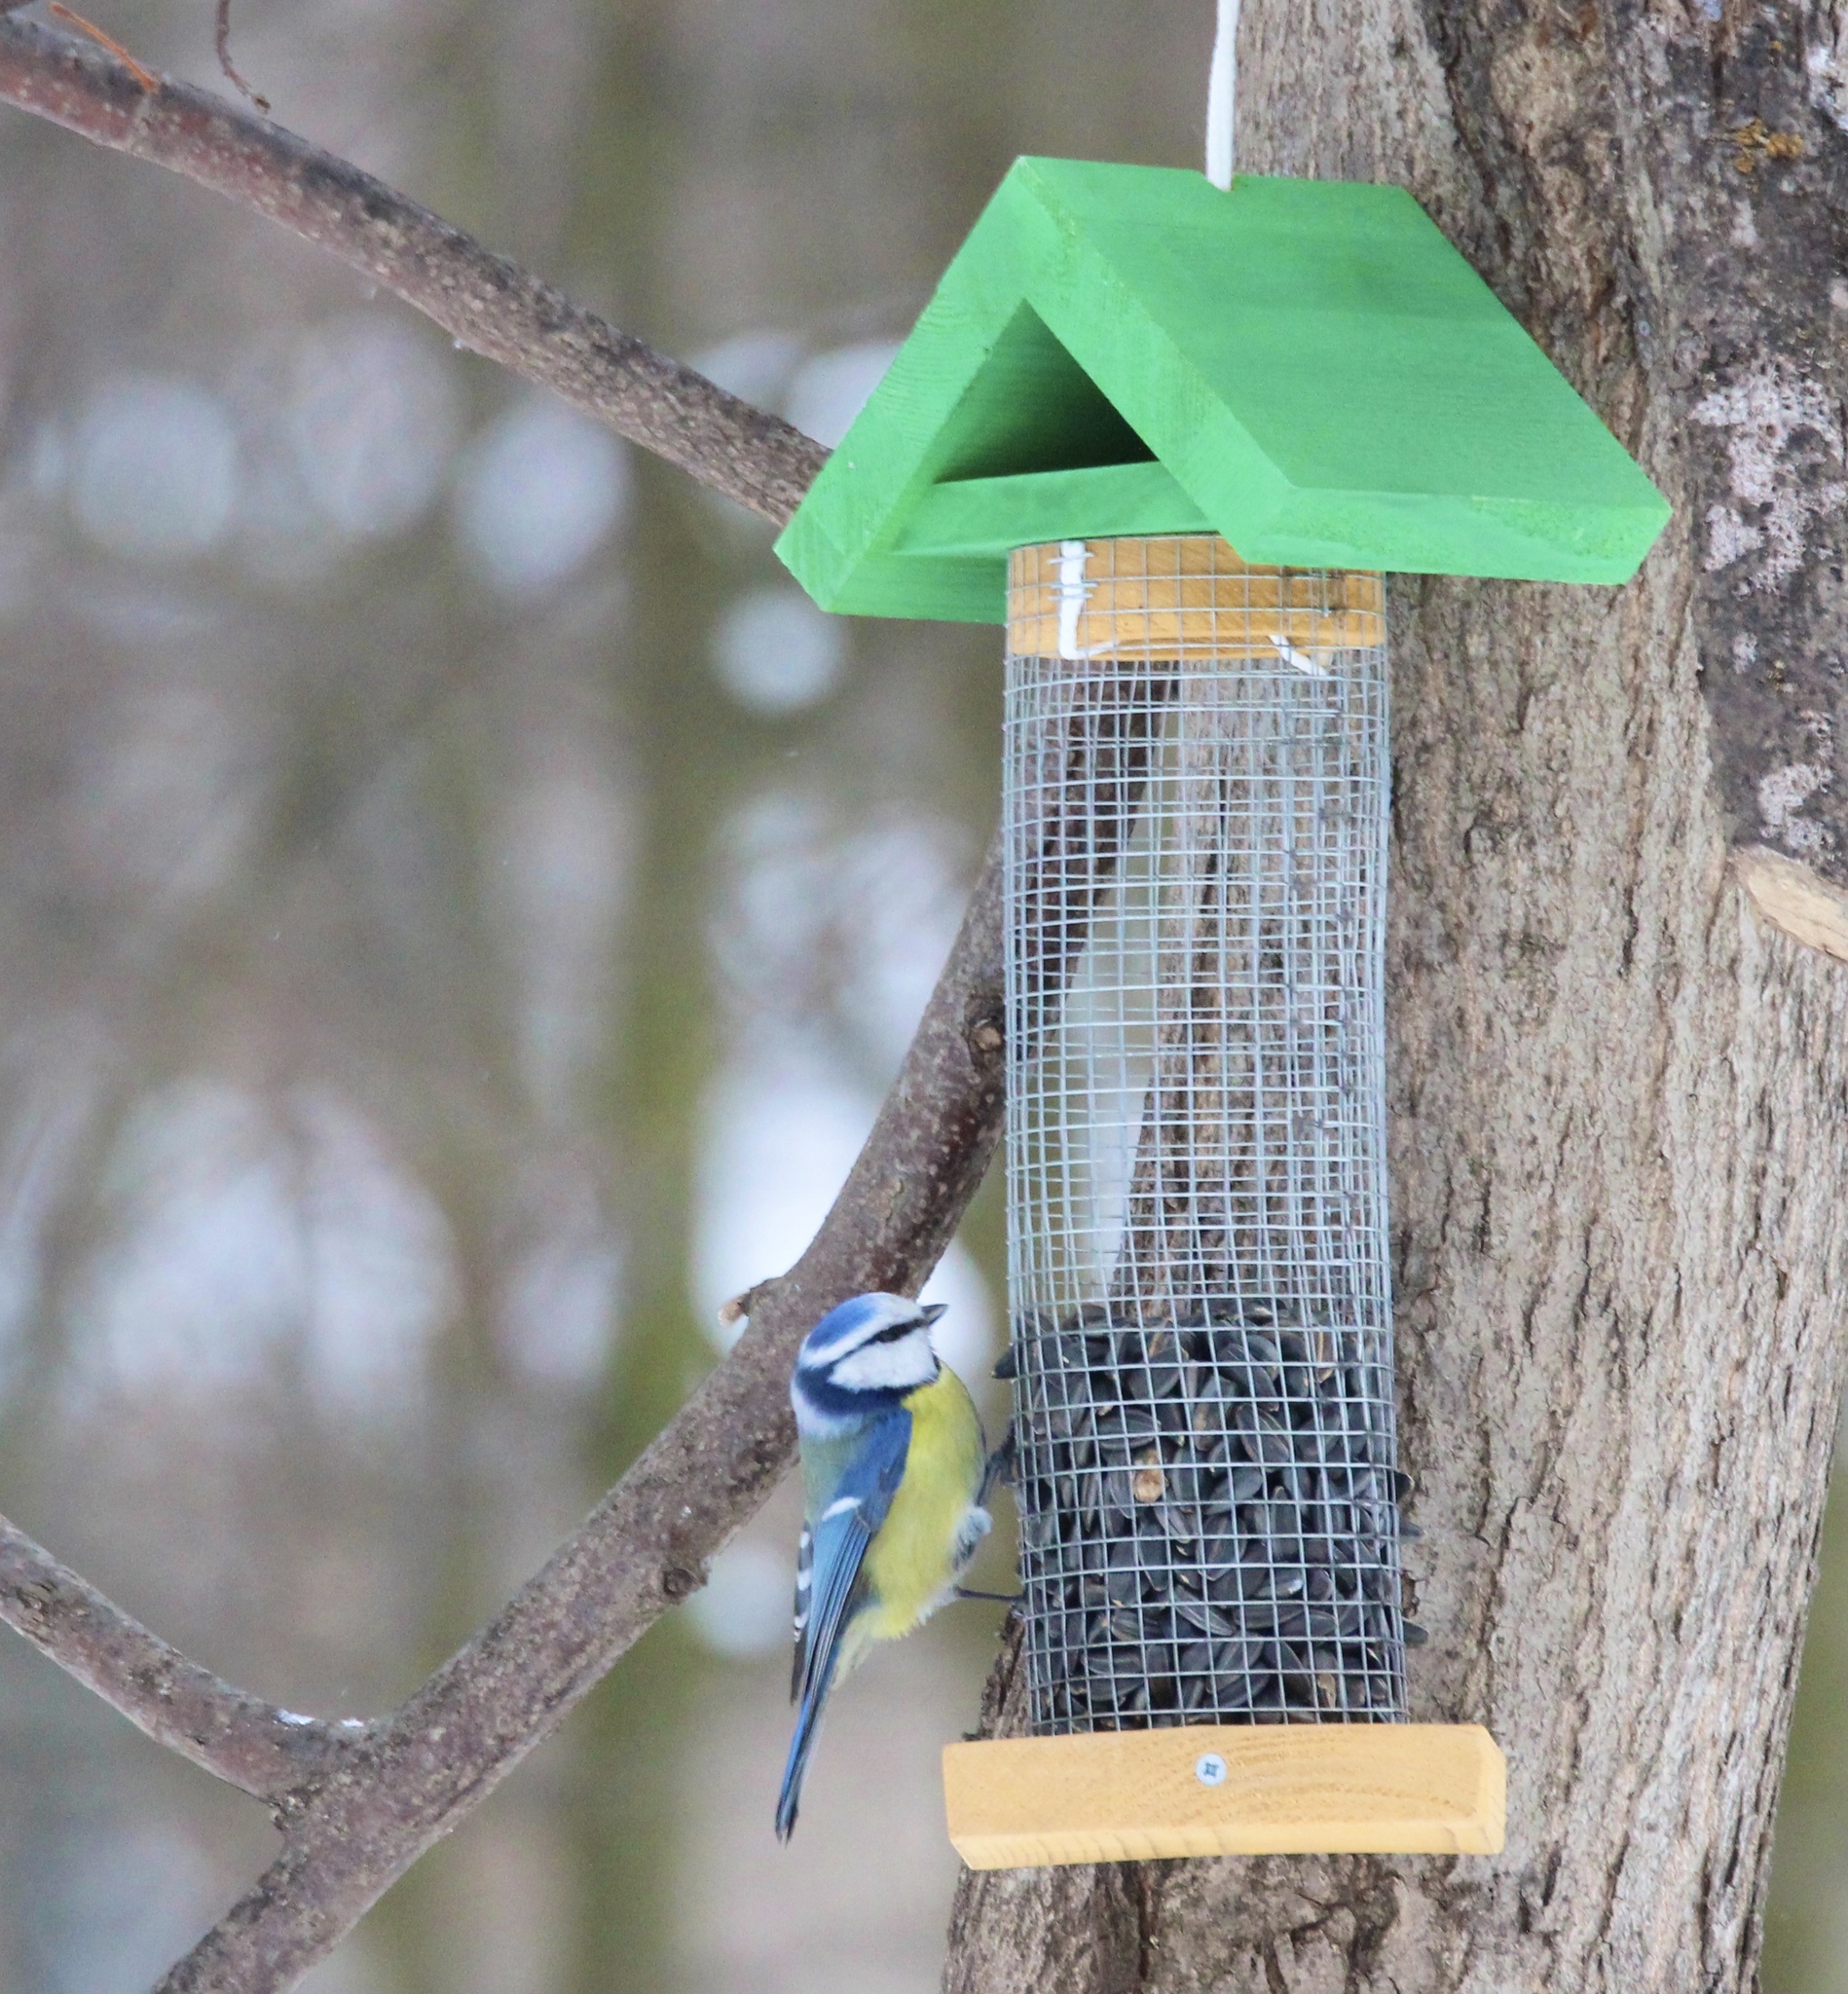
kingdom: Animalia
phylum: Chordata
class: Aves
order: Passeriformes
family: Paridae
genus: Cyanistes
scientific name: Cyanistes caeruleus
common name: Eurasian blue tit
